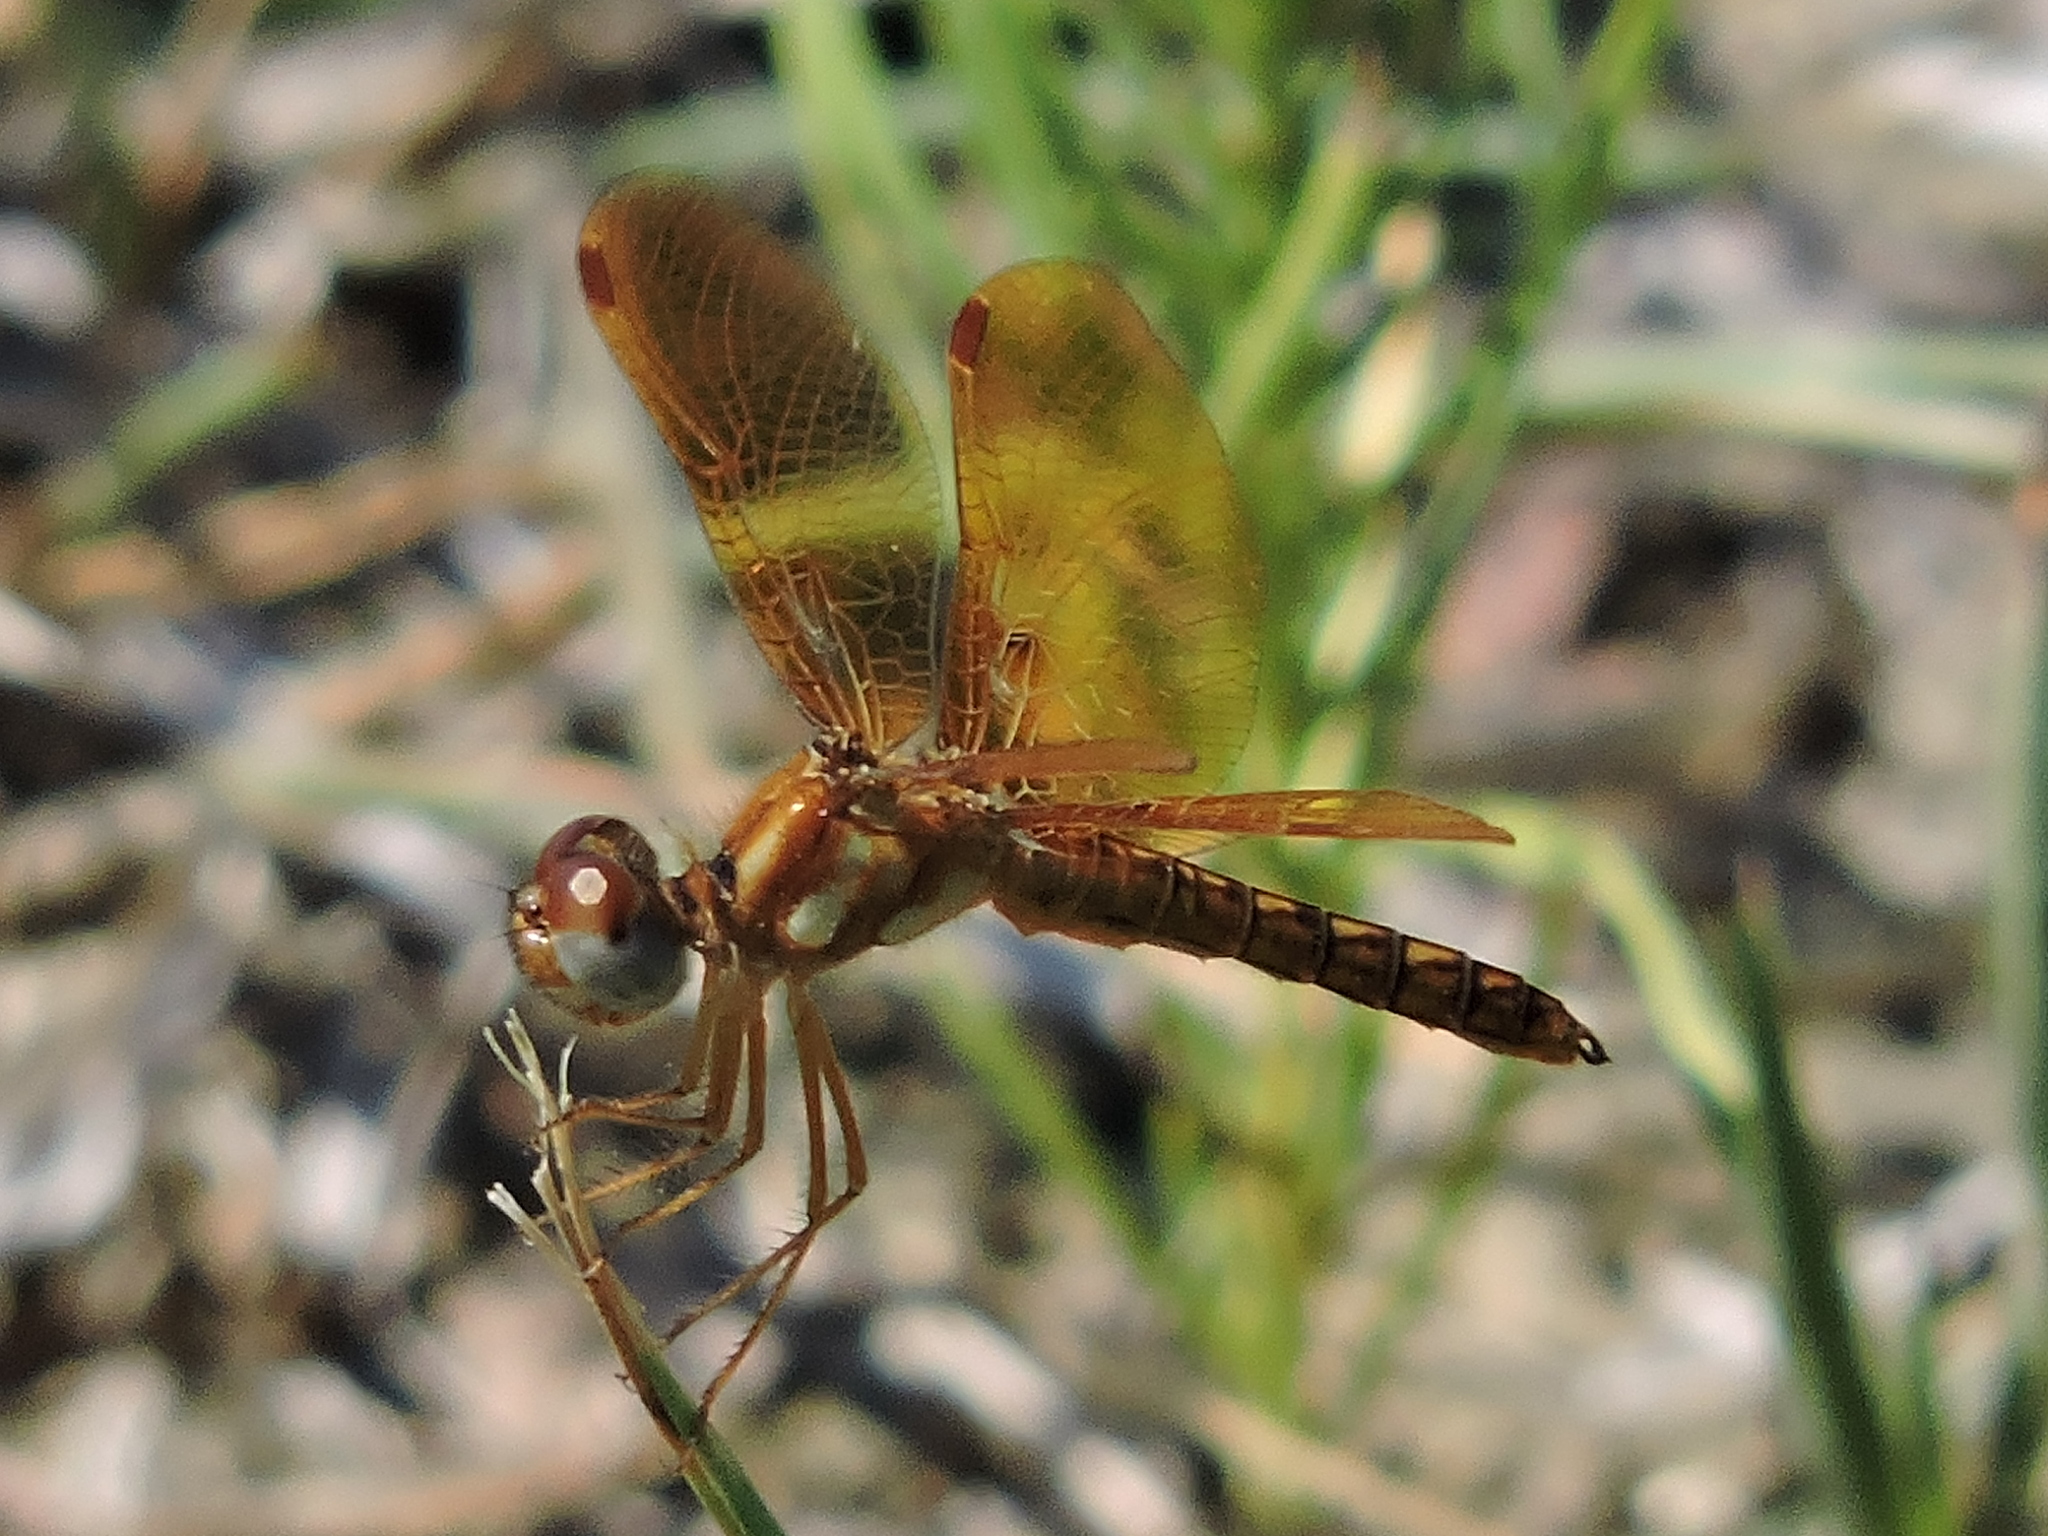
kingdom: Animalia
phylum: Arthropoda
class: Insecta
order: Odonata
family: Libellulidae
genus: Perithemis
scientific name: Perithemis tenera
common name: Eastern amberwing
